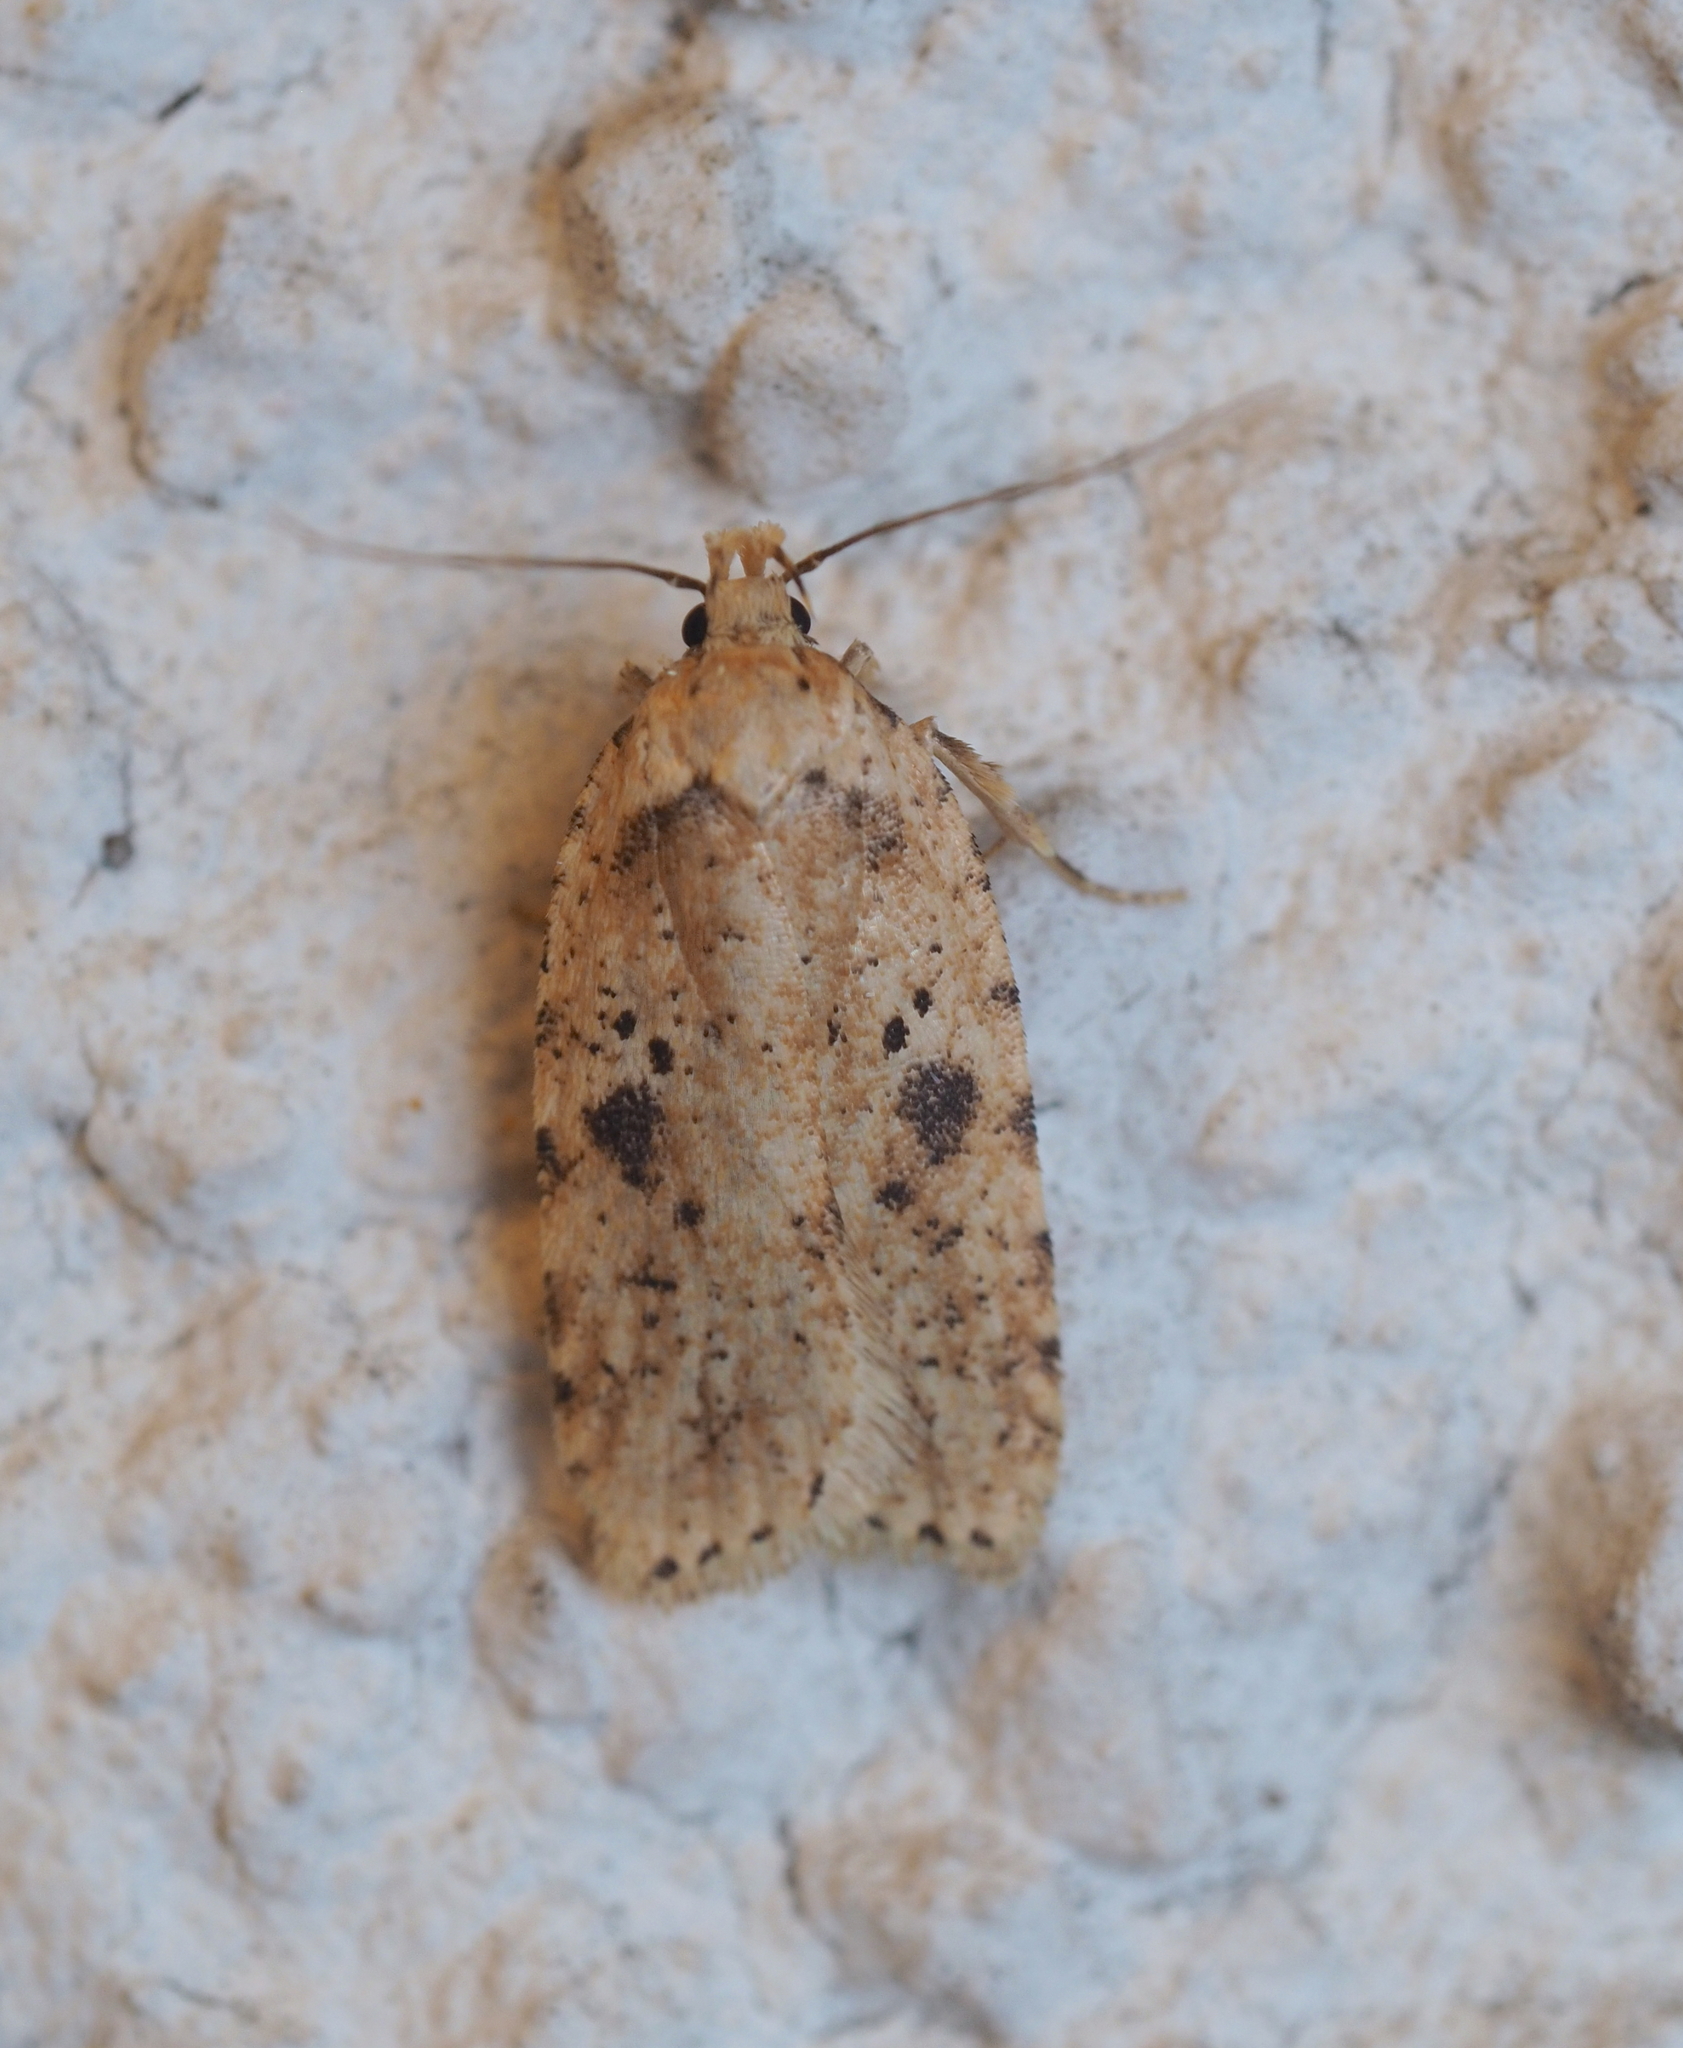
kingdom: Animalia
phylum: Arthropoda
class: Insecta
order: Lepidoptera
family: Depressariidae
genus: Agonopterix
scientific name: Agonopterix arenella
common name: Brindled flat-body
